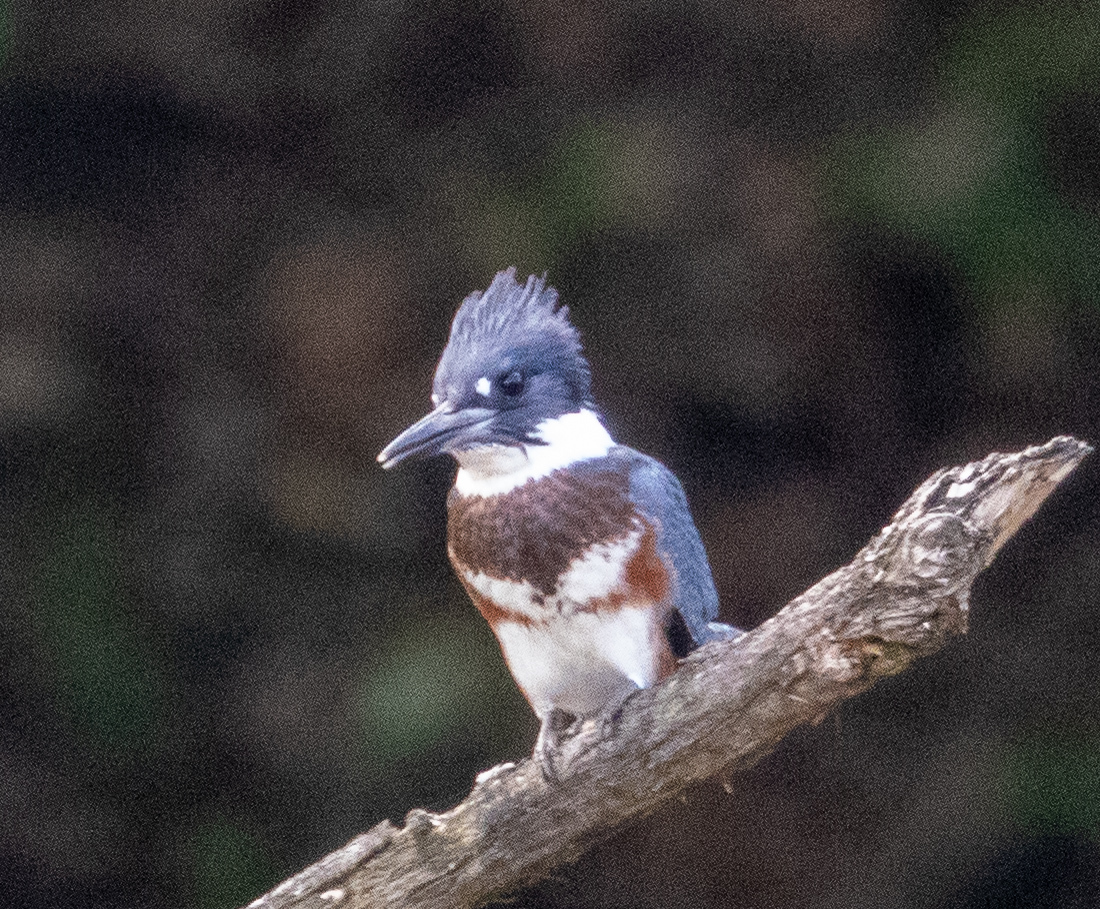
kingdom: Animalia
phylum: Chordata
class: Aves
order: Coraciiformes
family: Alcedinidae
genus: Megaceryle
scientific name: Megaceryle alcyon
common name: Belted kingfisher
